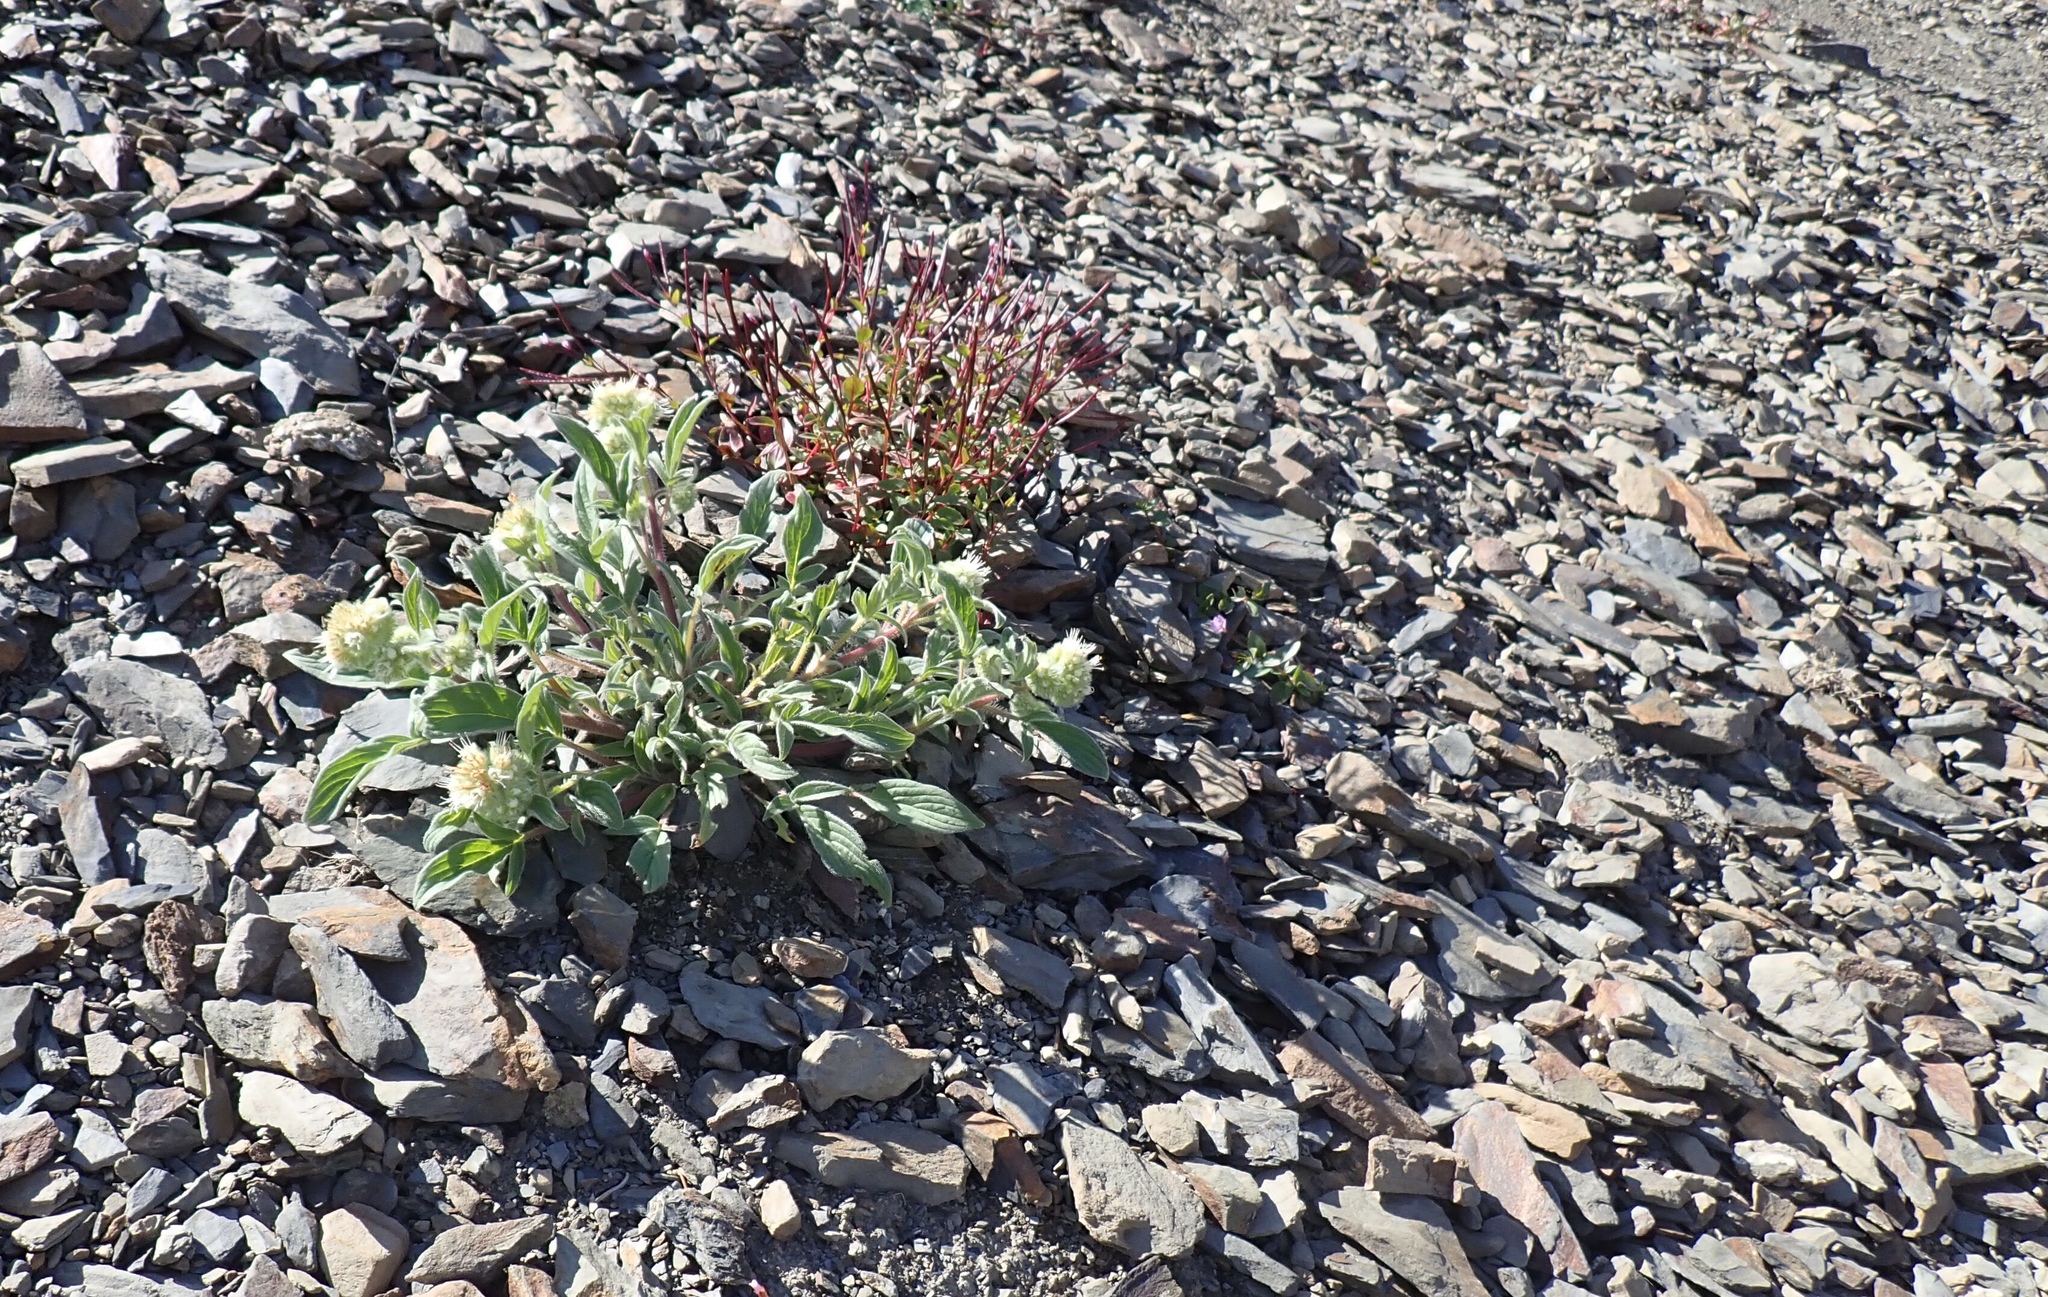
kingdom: Plantae
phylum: Tracheophyta
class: Magnoliopsida
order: Boraginales
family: Hydrophyllaceae
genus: Phacelia
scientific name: Phacelia hastata
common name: Silver-leaved phacelia
